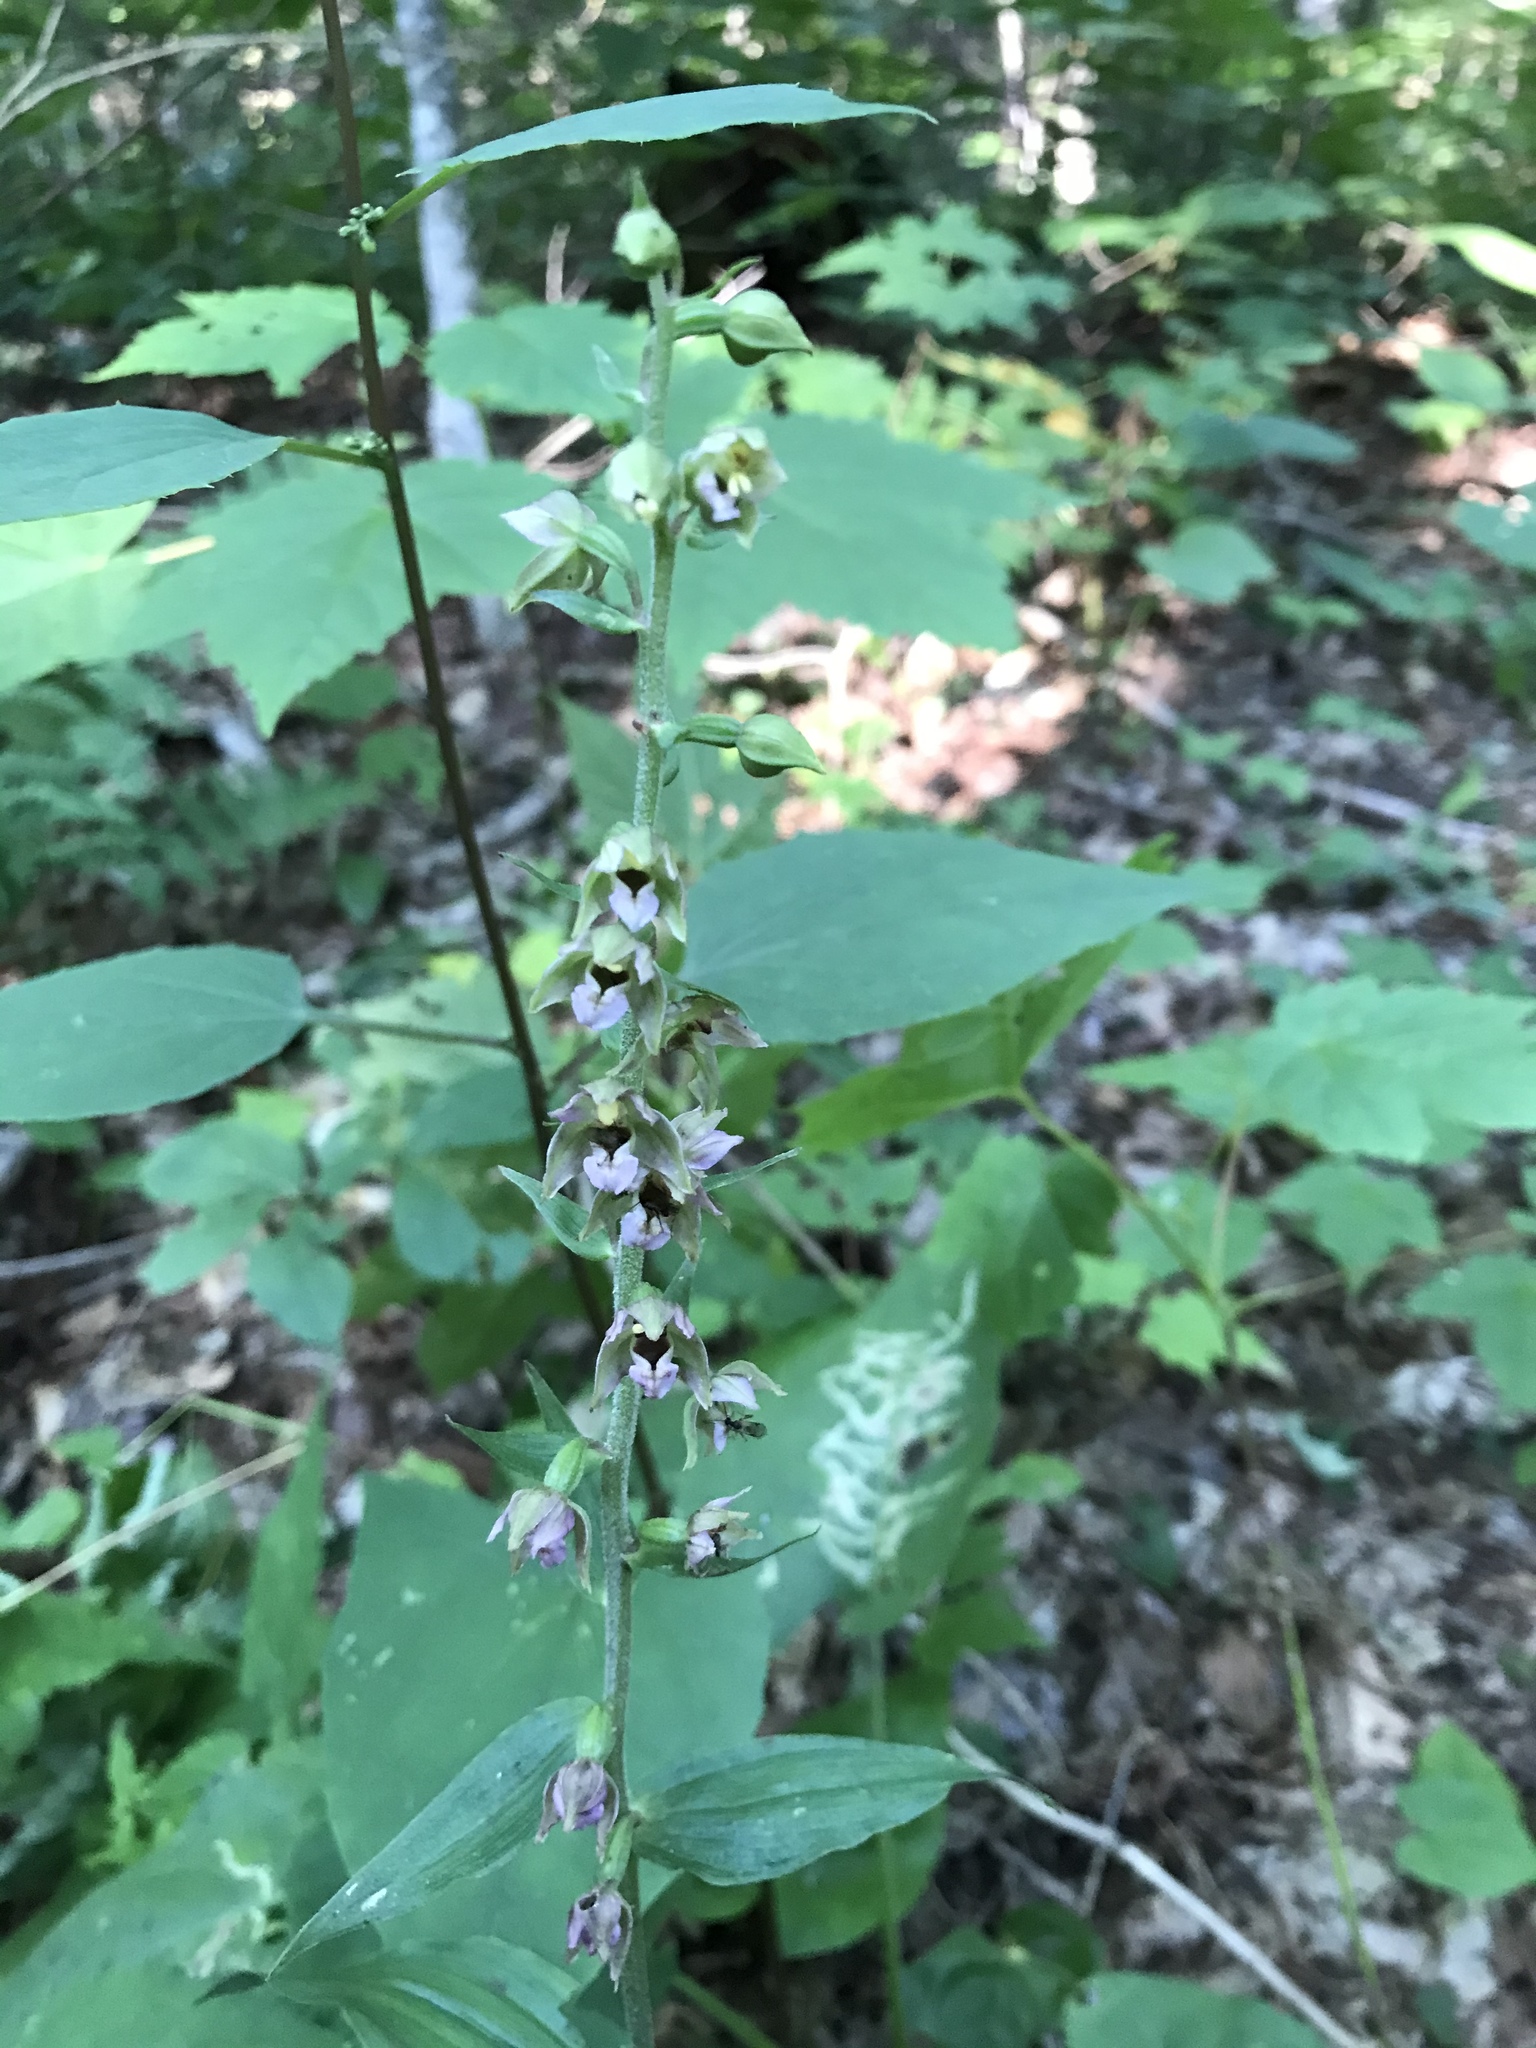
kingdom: Plantae
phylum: Tracheophyta
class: Liliopsida
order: Asparagales
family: Orchidaceae
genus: Epipactis
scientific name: Epipactis helleborine
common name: Broad-leaved helleborine
